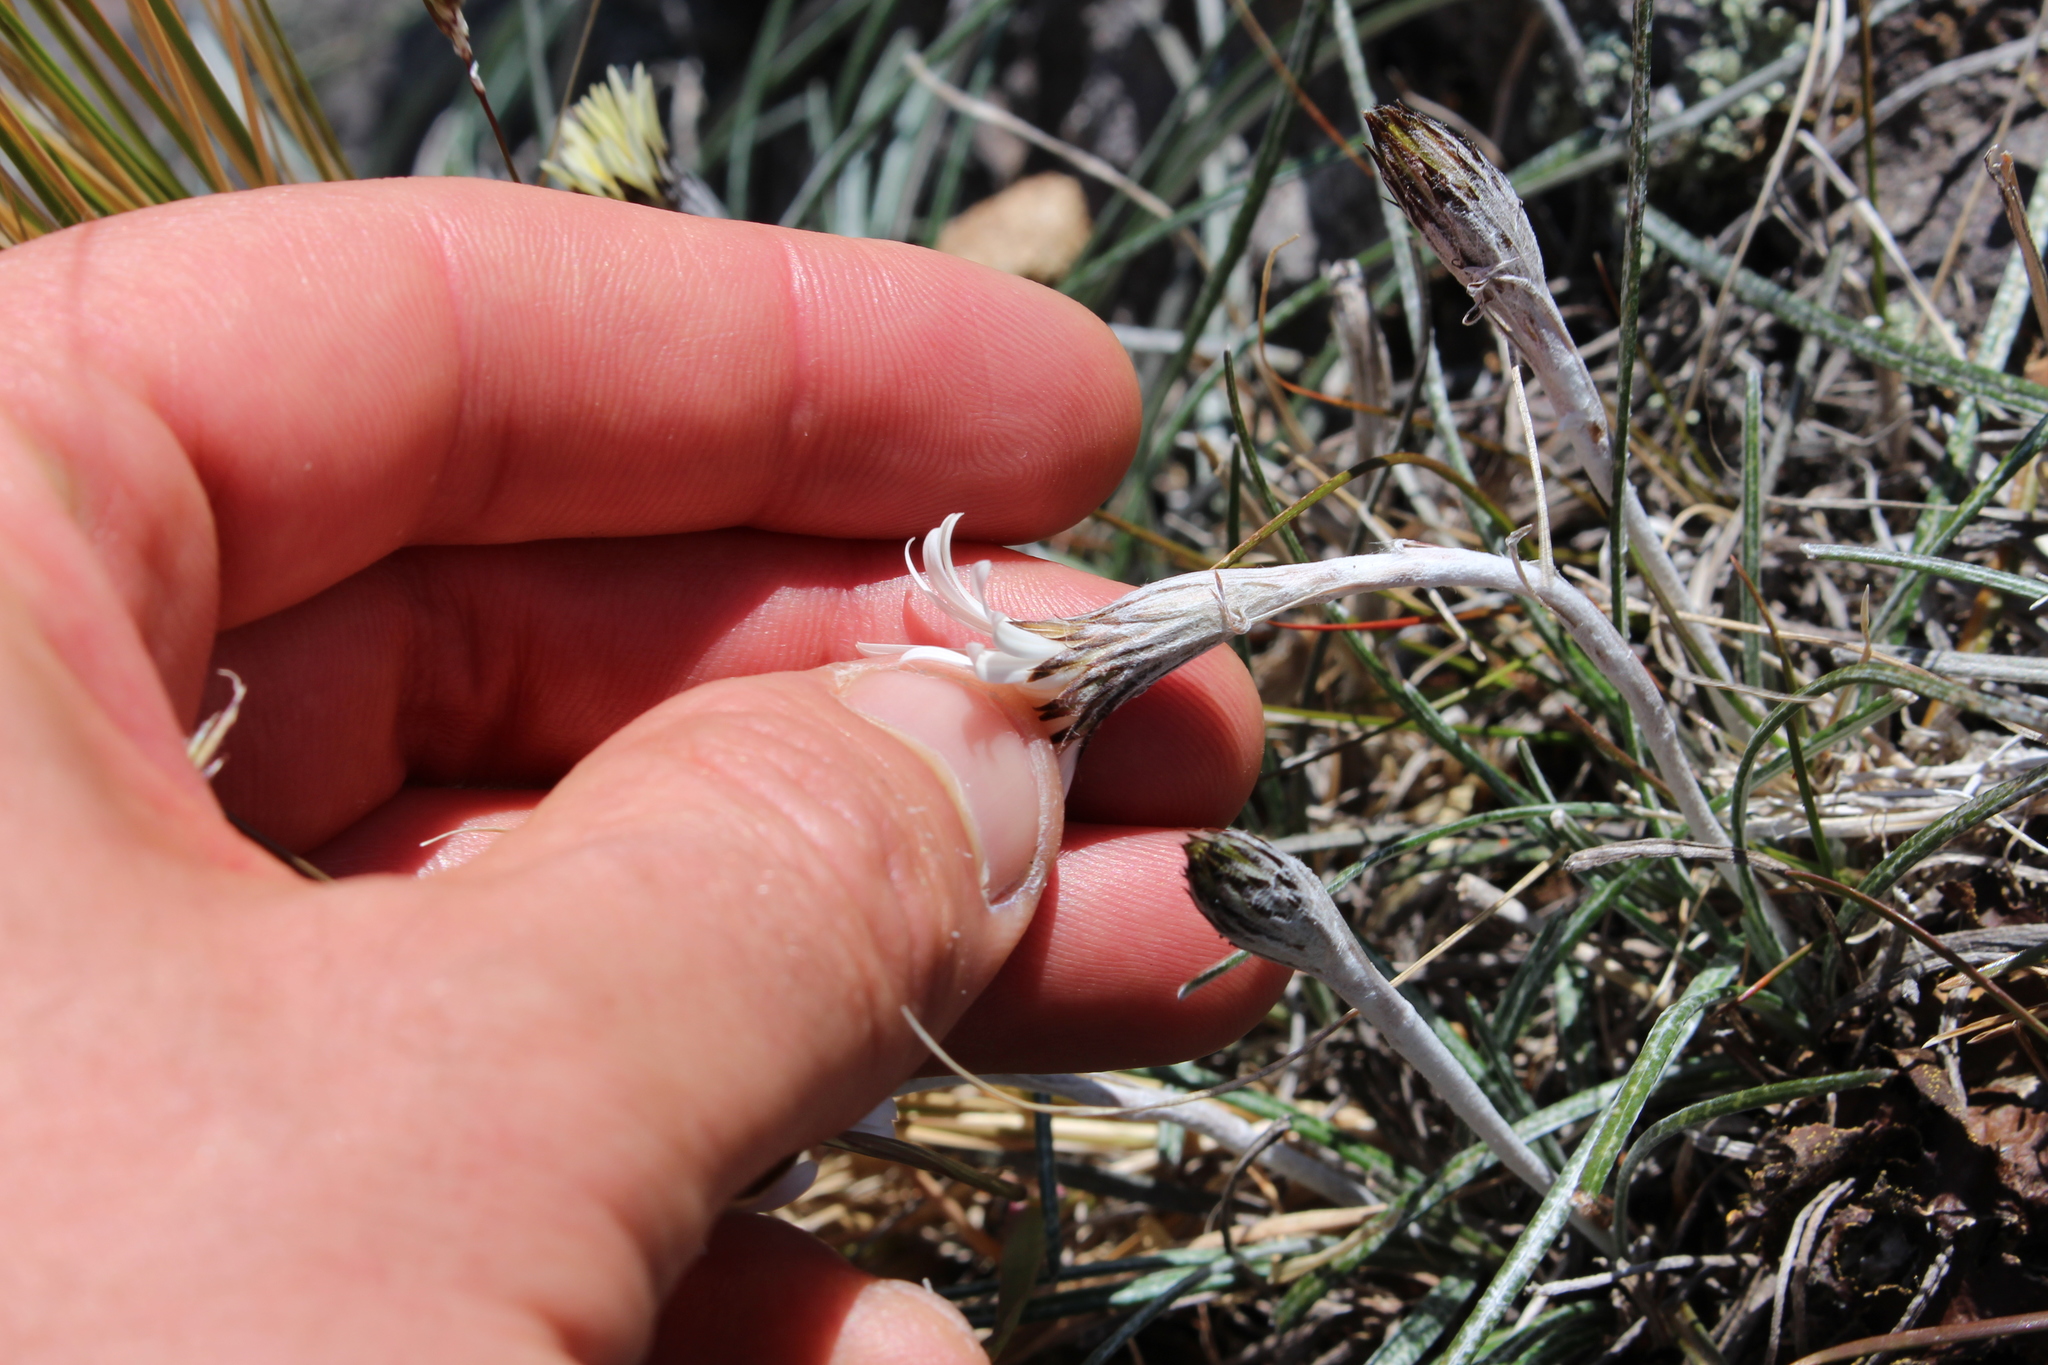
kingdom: Plantae
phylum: Tracheophyta
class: Magnoliopsida
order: Asterales
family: Asteraceae
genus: Celmisia
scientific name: Celmisia gracilenta
